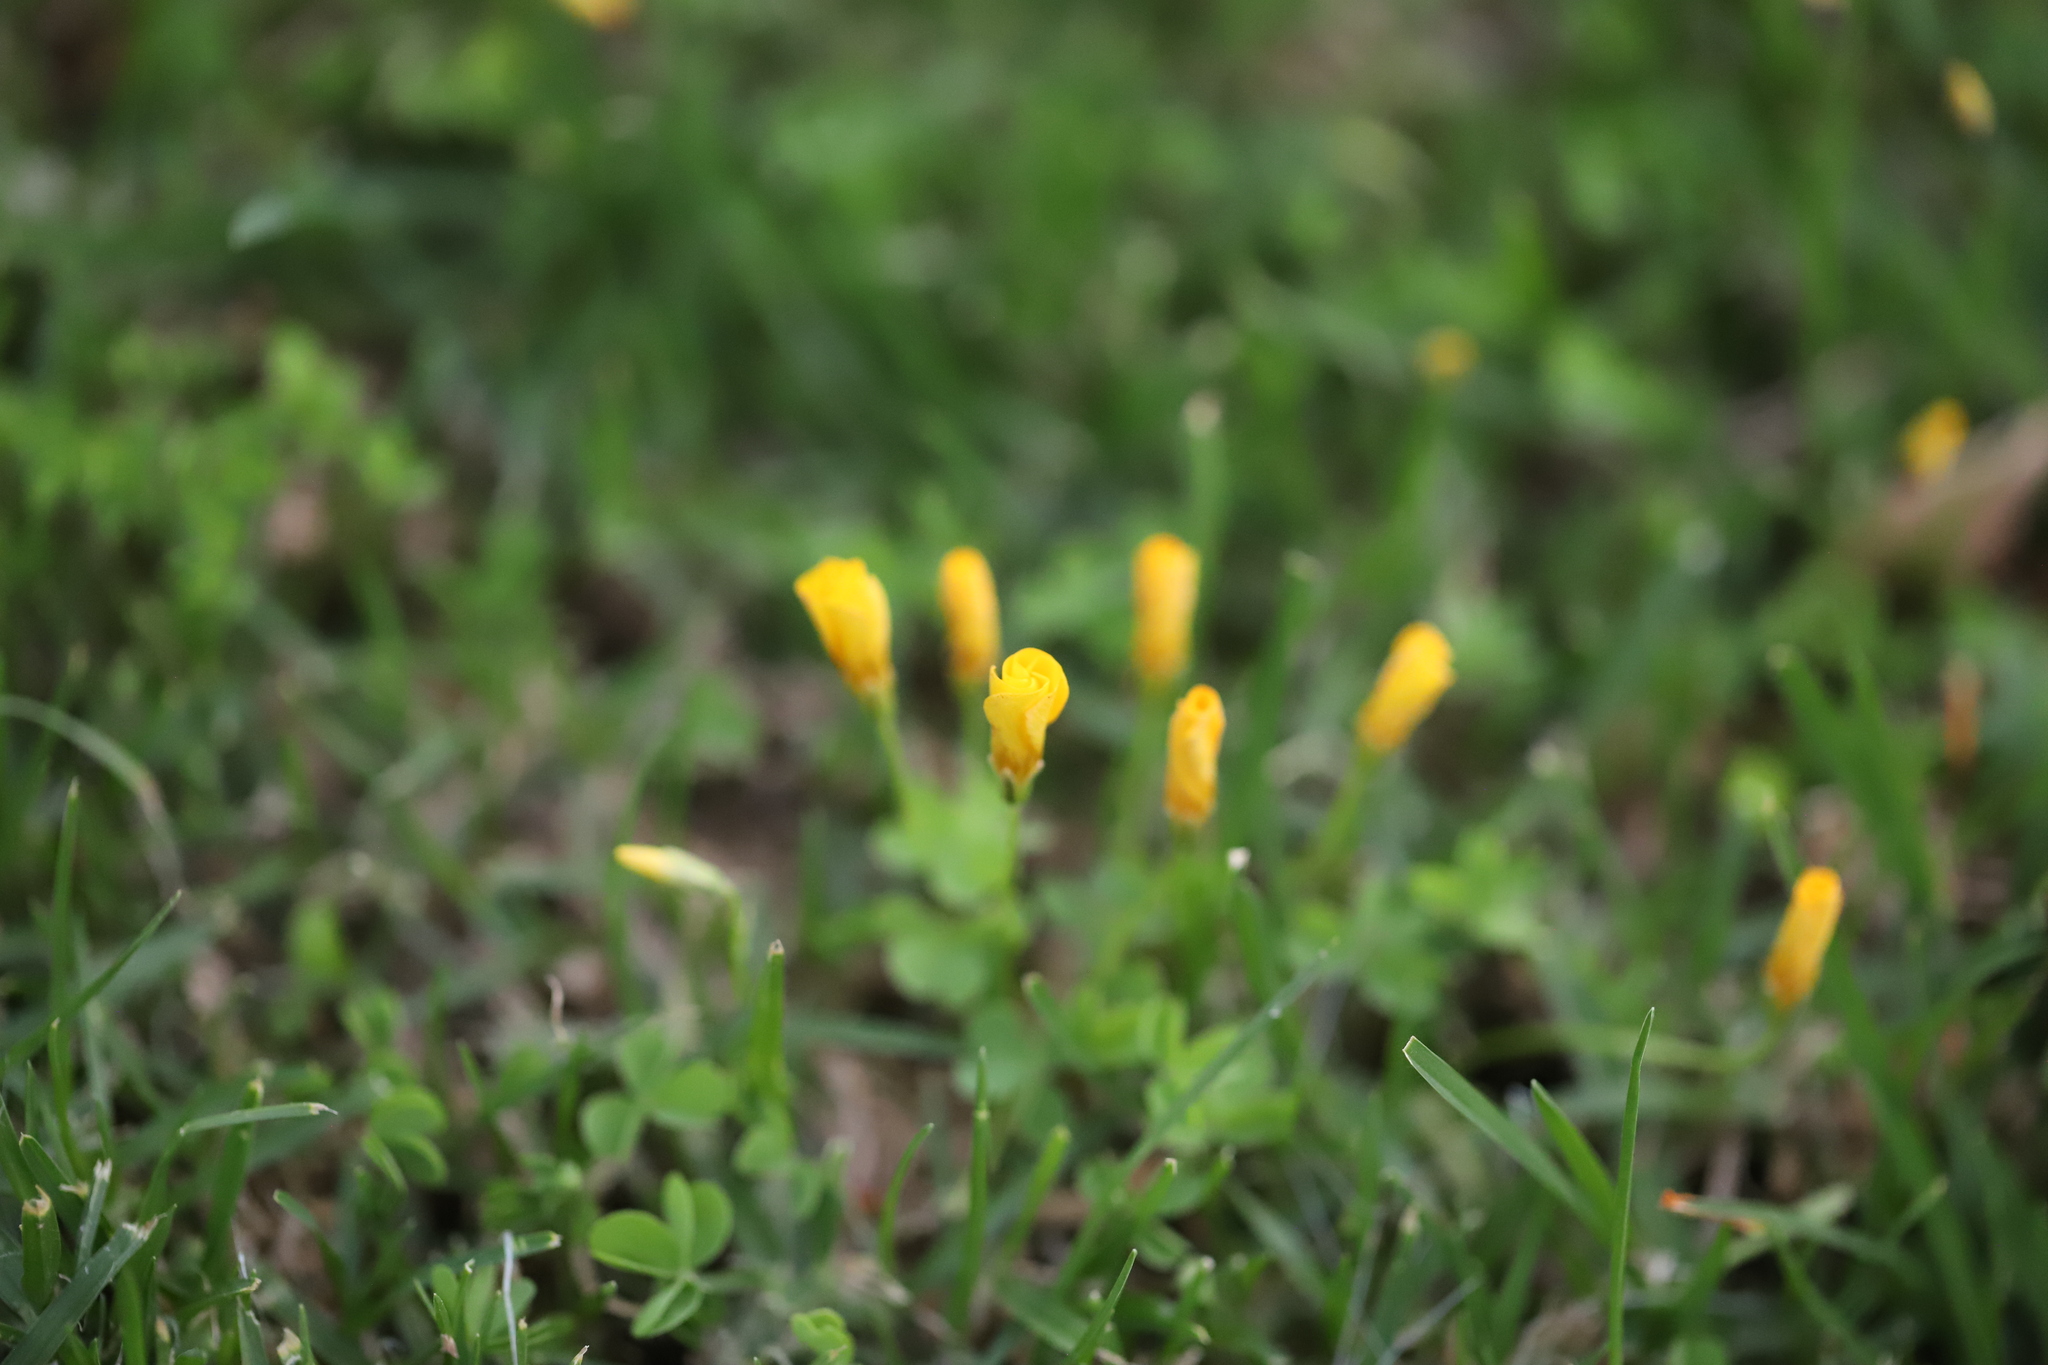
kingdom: Plantae
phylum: Tracheophyta
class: Magnoliopsida
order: Oxalidales
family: Oxalidaceae
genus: Oxalis
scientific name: Oxalis perdicaria
